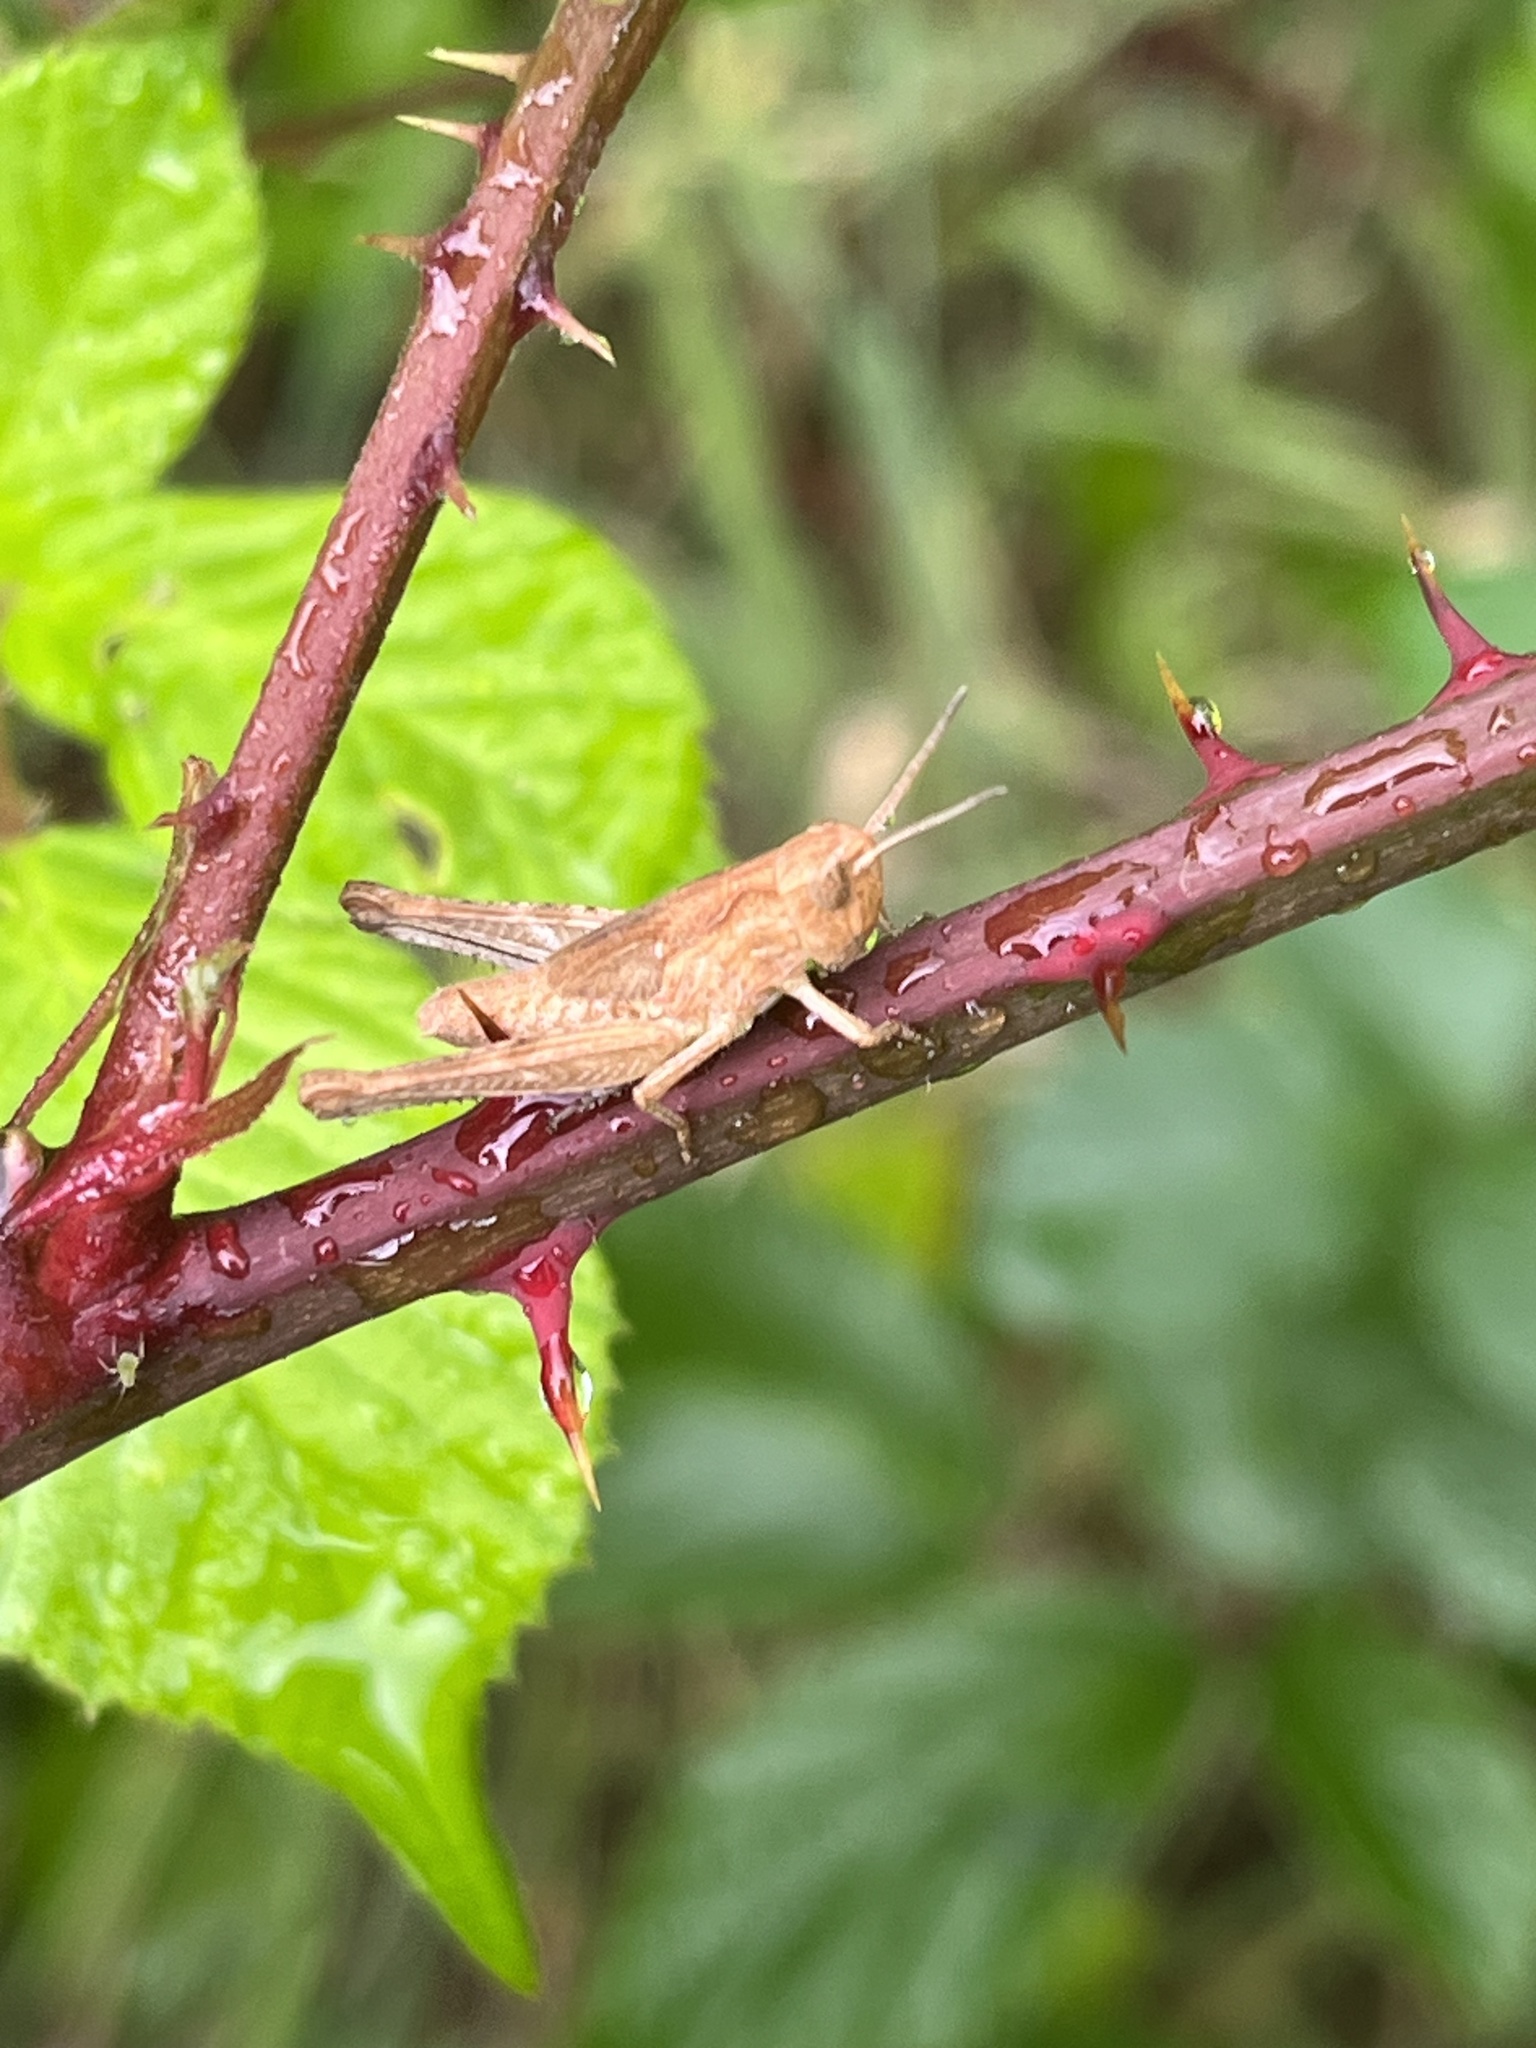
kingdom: Animalia
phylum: Arthropoda
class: Insecta
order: Orthoptera
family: Acrididae
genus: Chorthippus
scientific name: Chorthippus brunneus
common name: Field grasshopper
